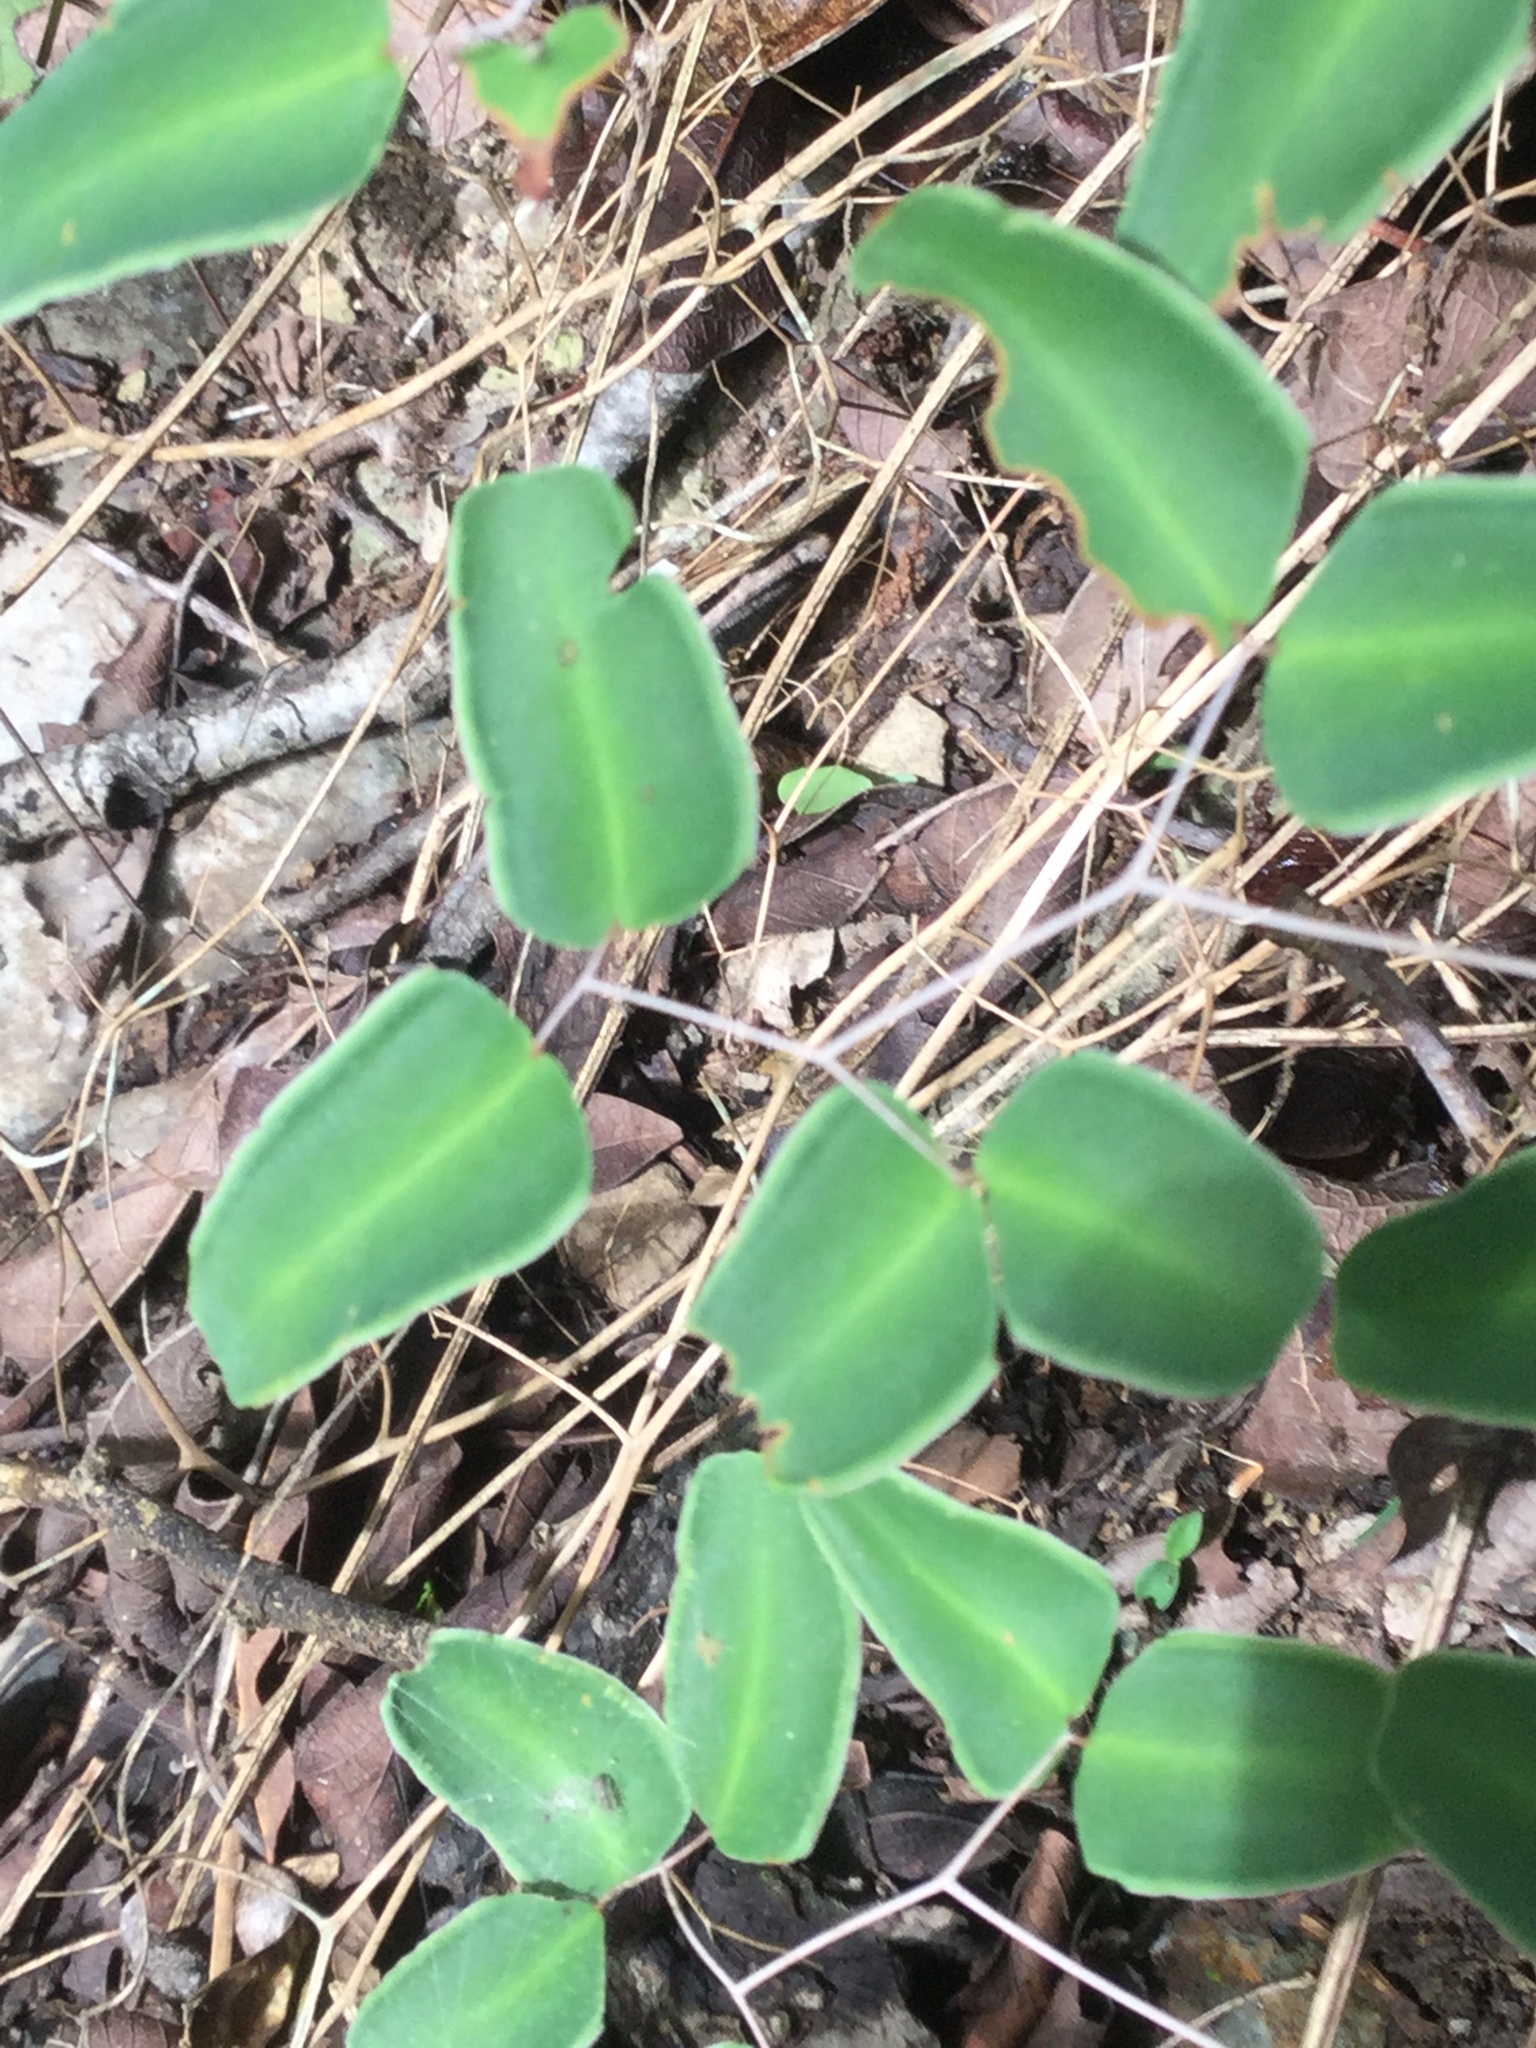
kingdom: Plantae
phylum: Tracheophyta
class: Polypodiopsida
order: Polypodiales
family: Pteridaceae
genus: Pellaea
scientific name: Pellaea ovata
